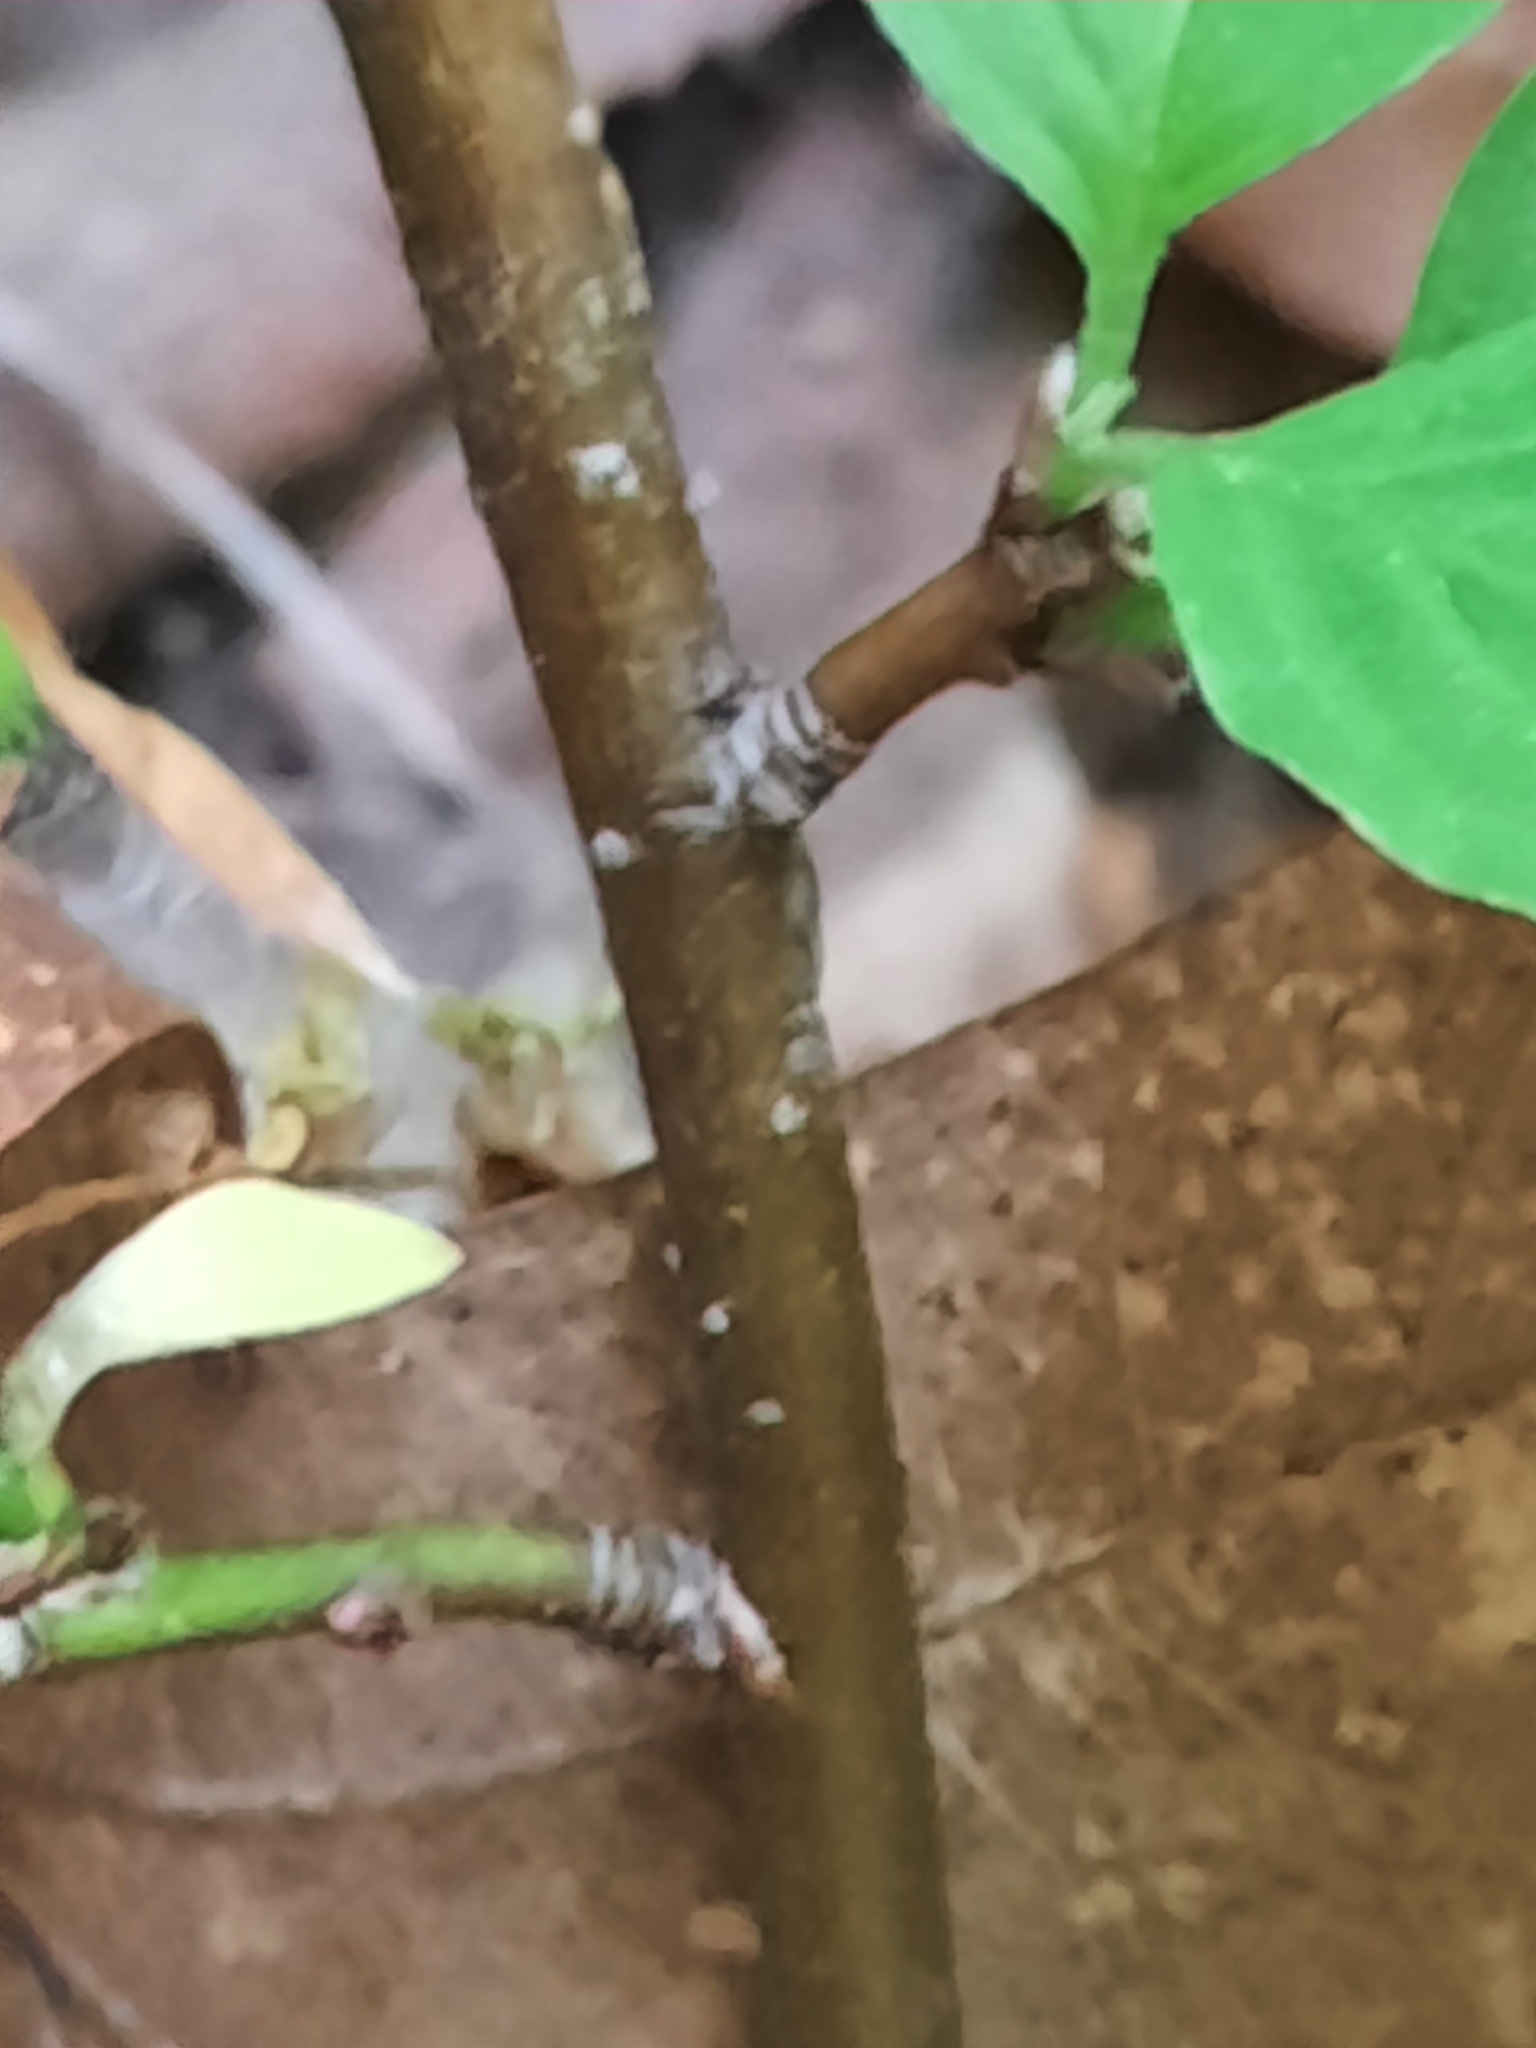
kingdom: Plantae
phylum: Tracheophyta
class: Magnoliopsida
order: Cornales
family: Cornaceae
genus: Cornus
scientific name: Cornus alternifolia
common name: Pagoda dogwood
